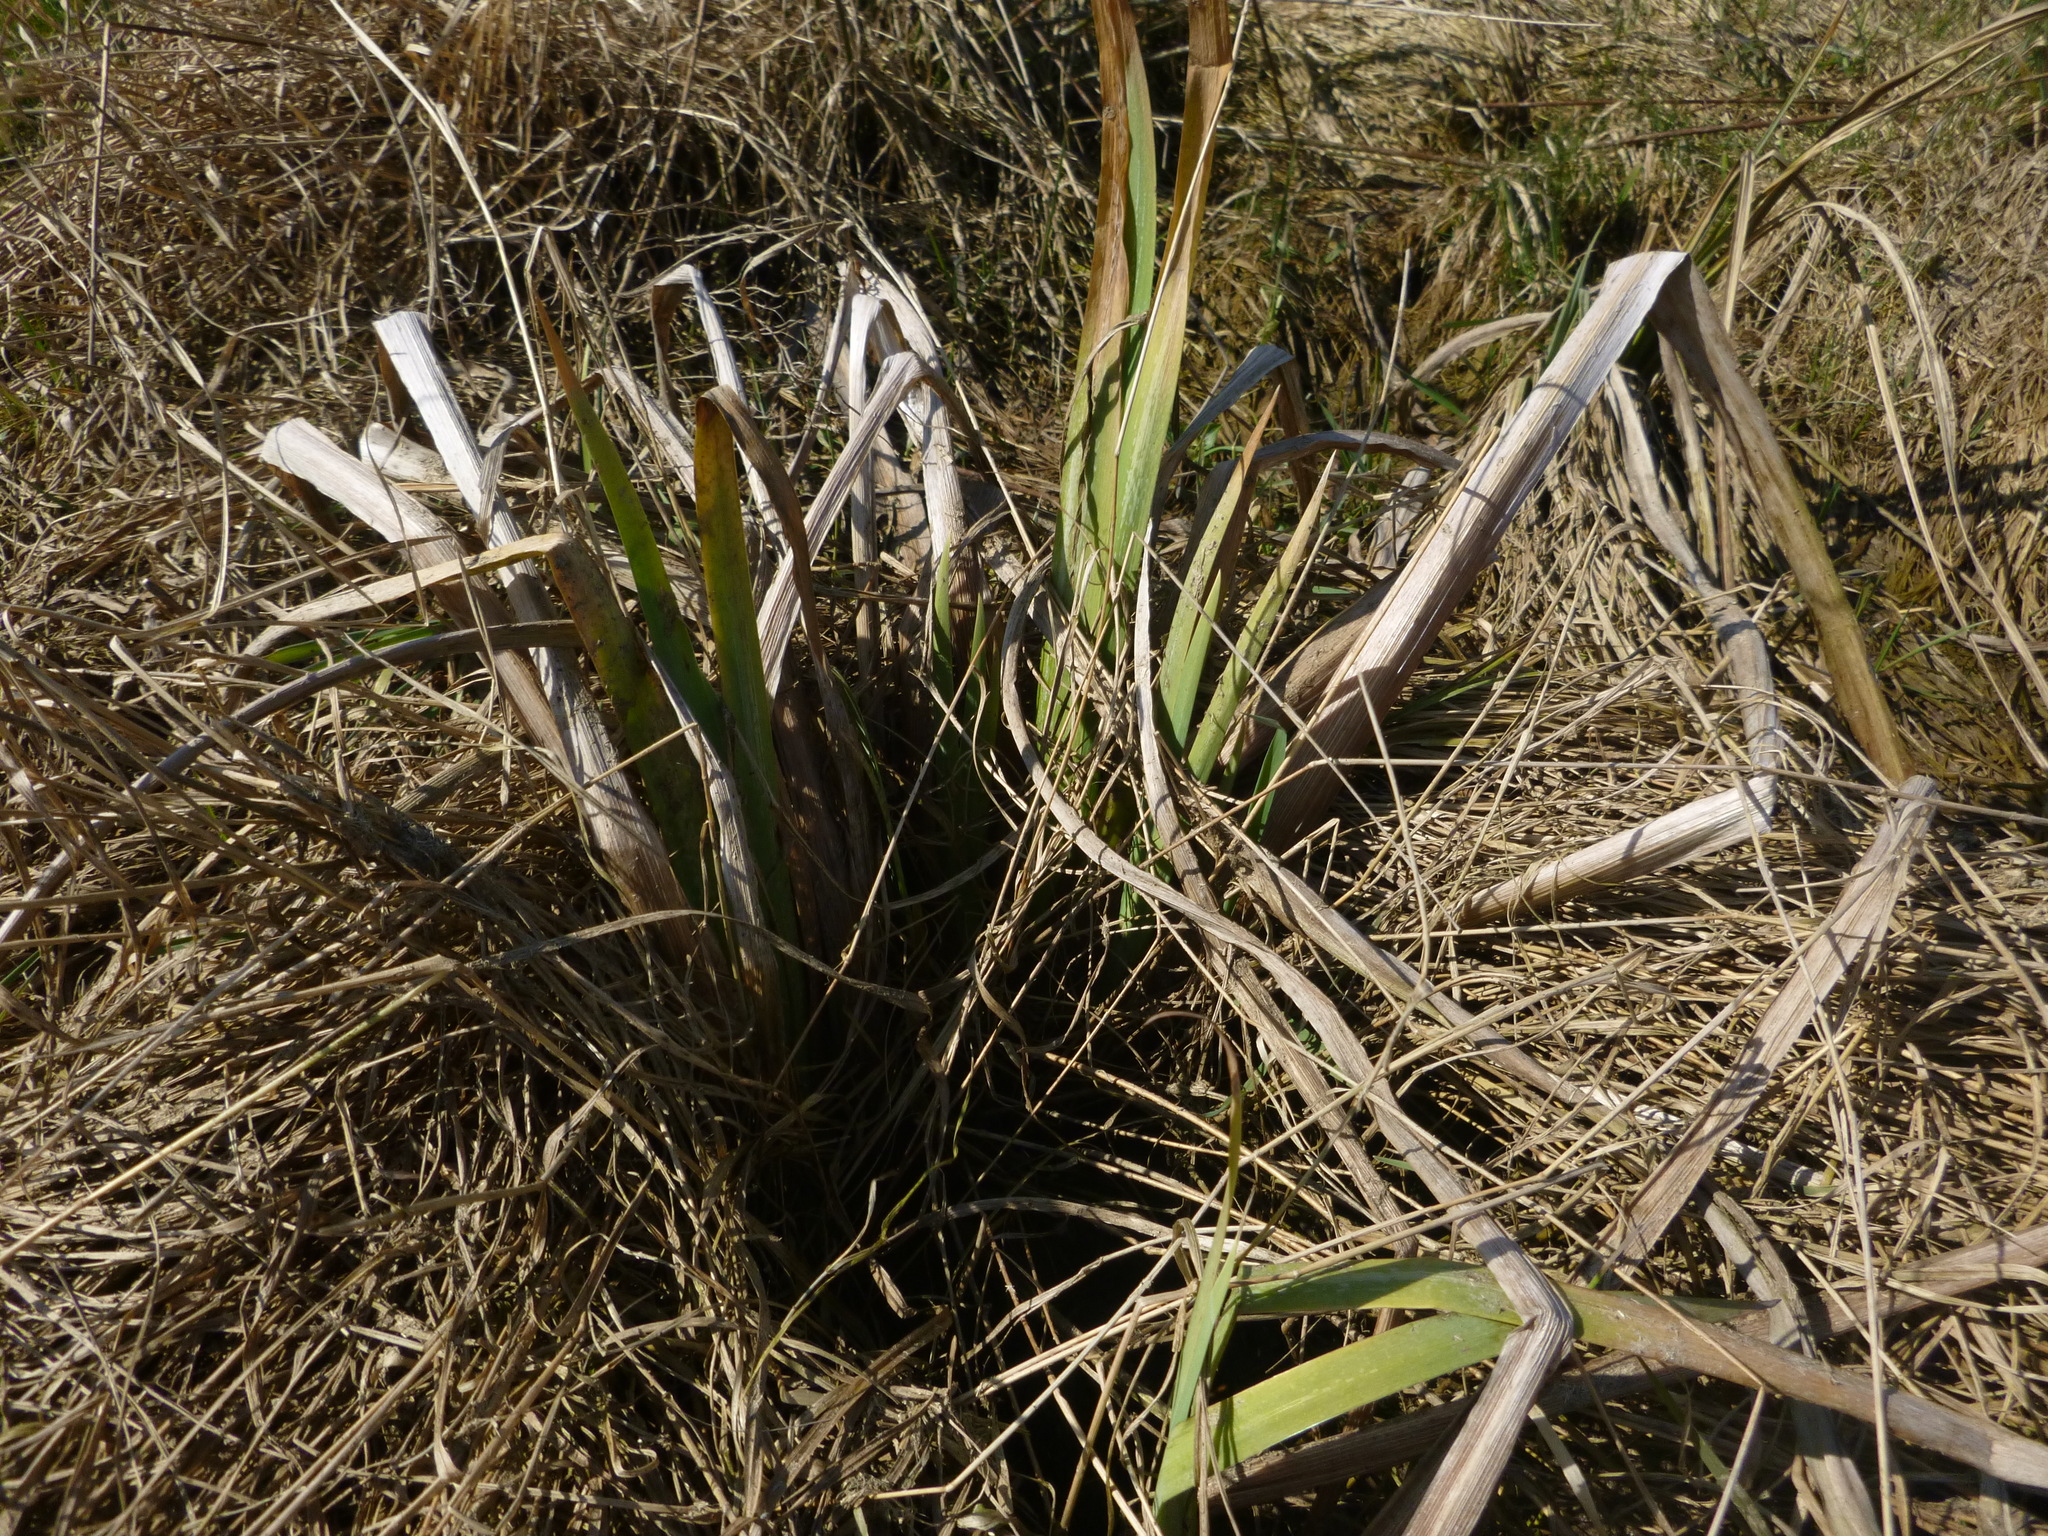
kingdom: Plantae
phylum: Tracheophyta
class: Liliopsida
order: Asparagales
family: Iridaceae
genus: Iris
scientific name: Iris pseudacorus
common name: Yellow flag
